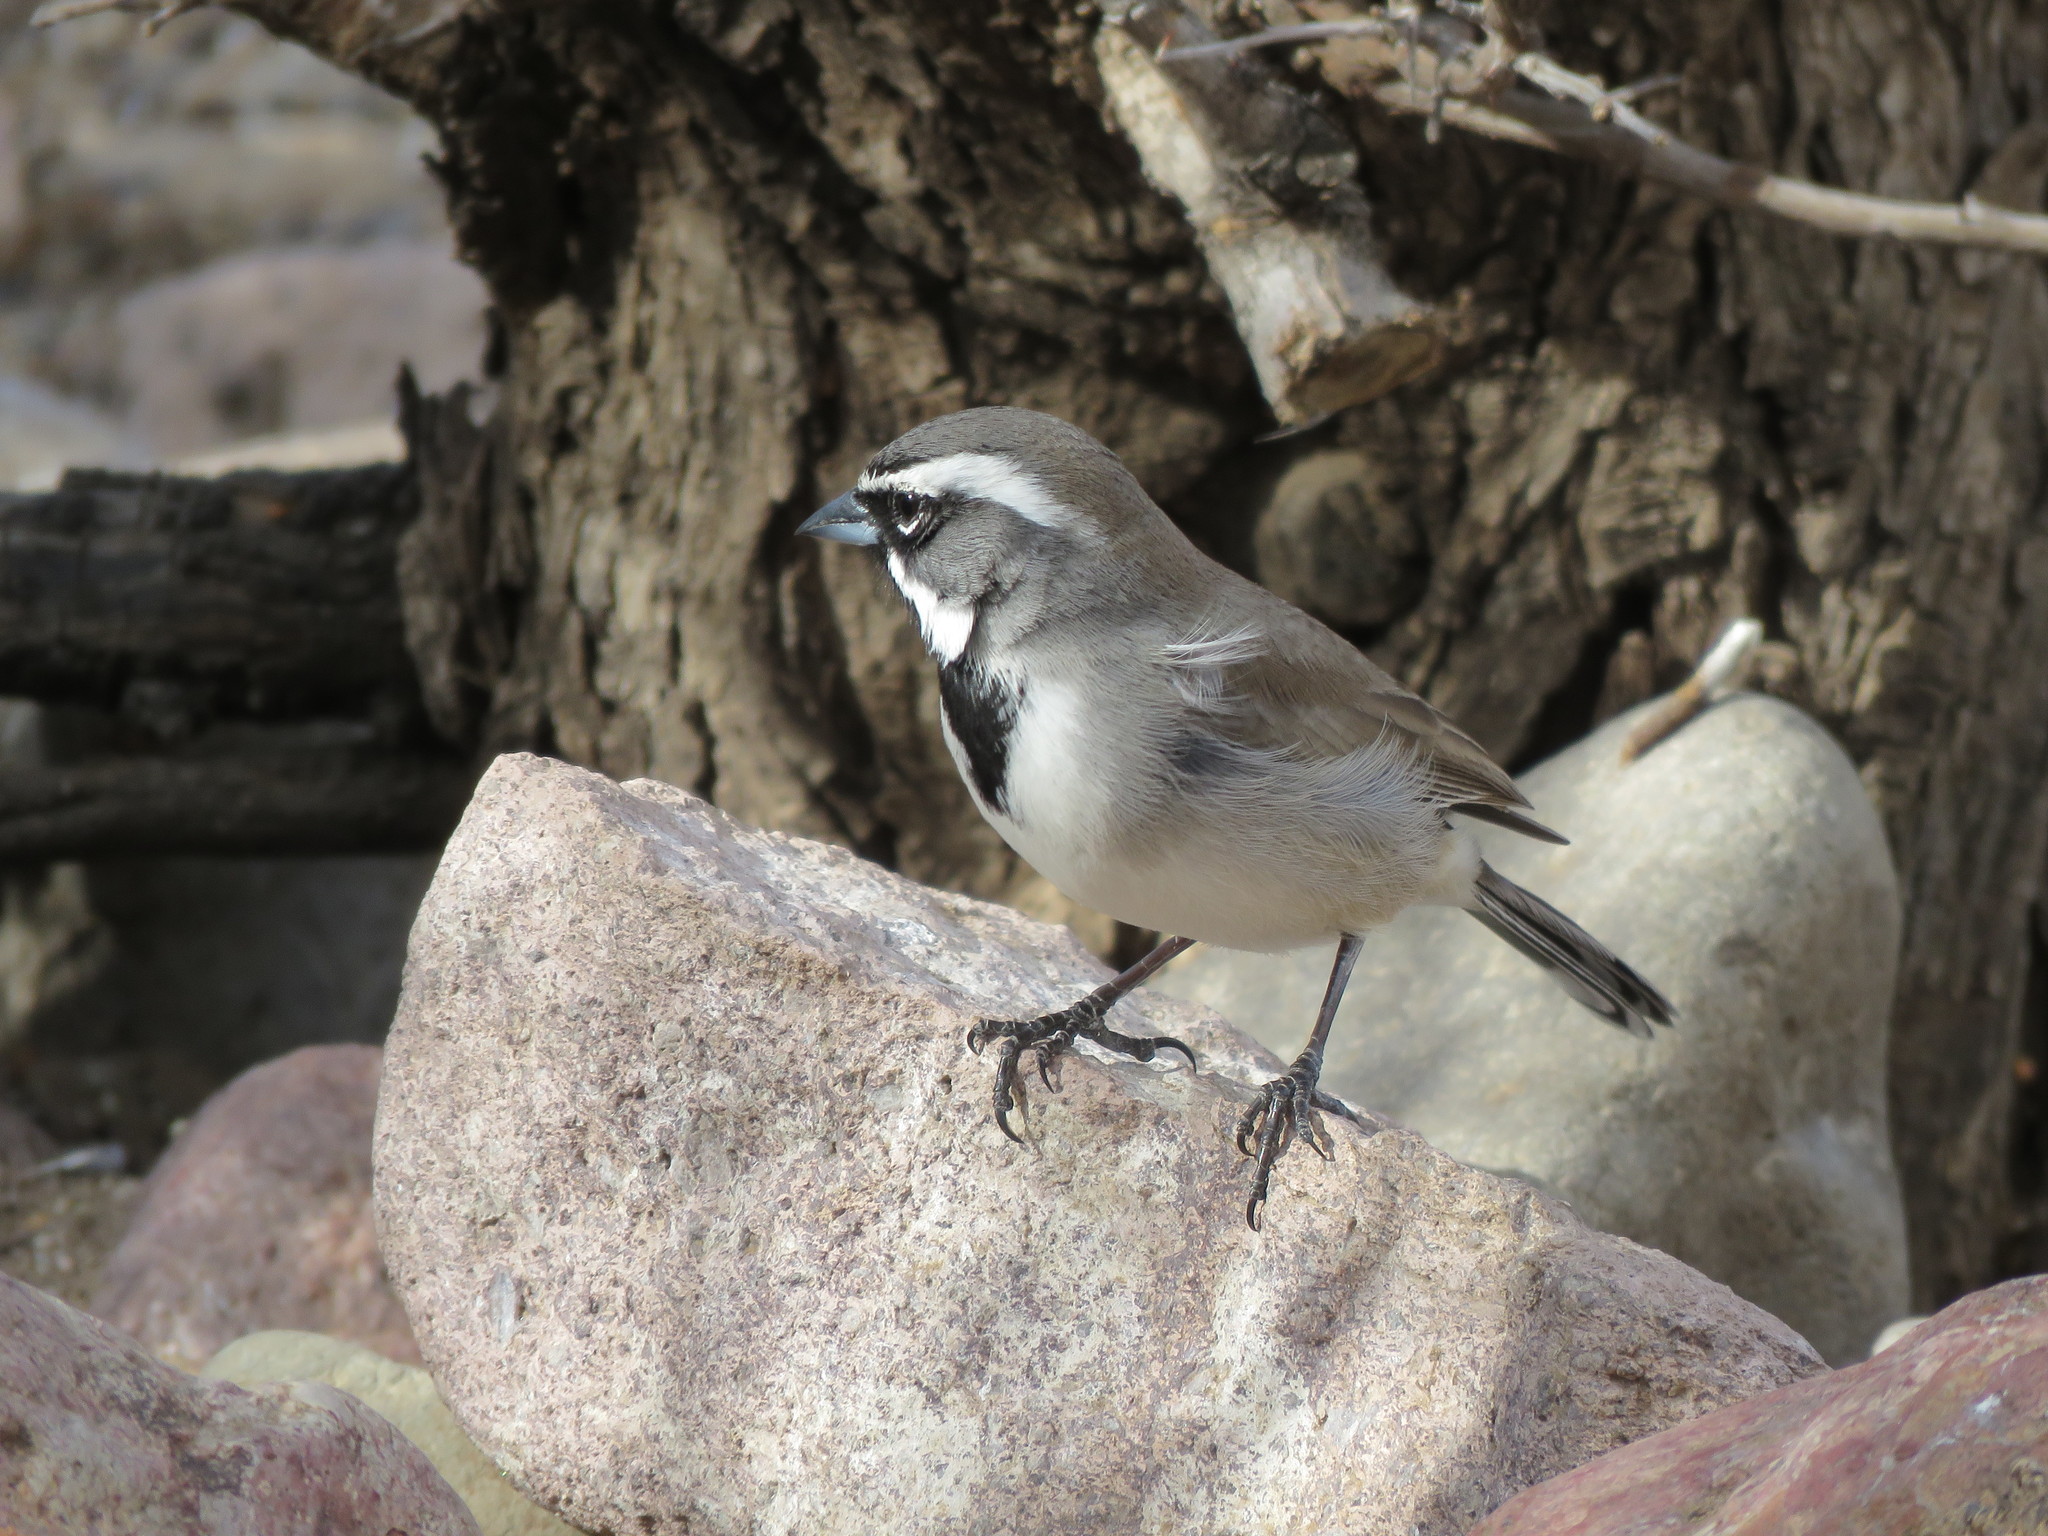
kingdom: Animalia
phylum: Chordata
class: Aves
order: Passeriformes
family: Passerellidae
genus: Amphispiza
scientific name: Amphispiza bilineata
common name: Black-throated sparrow
